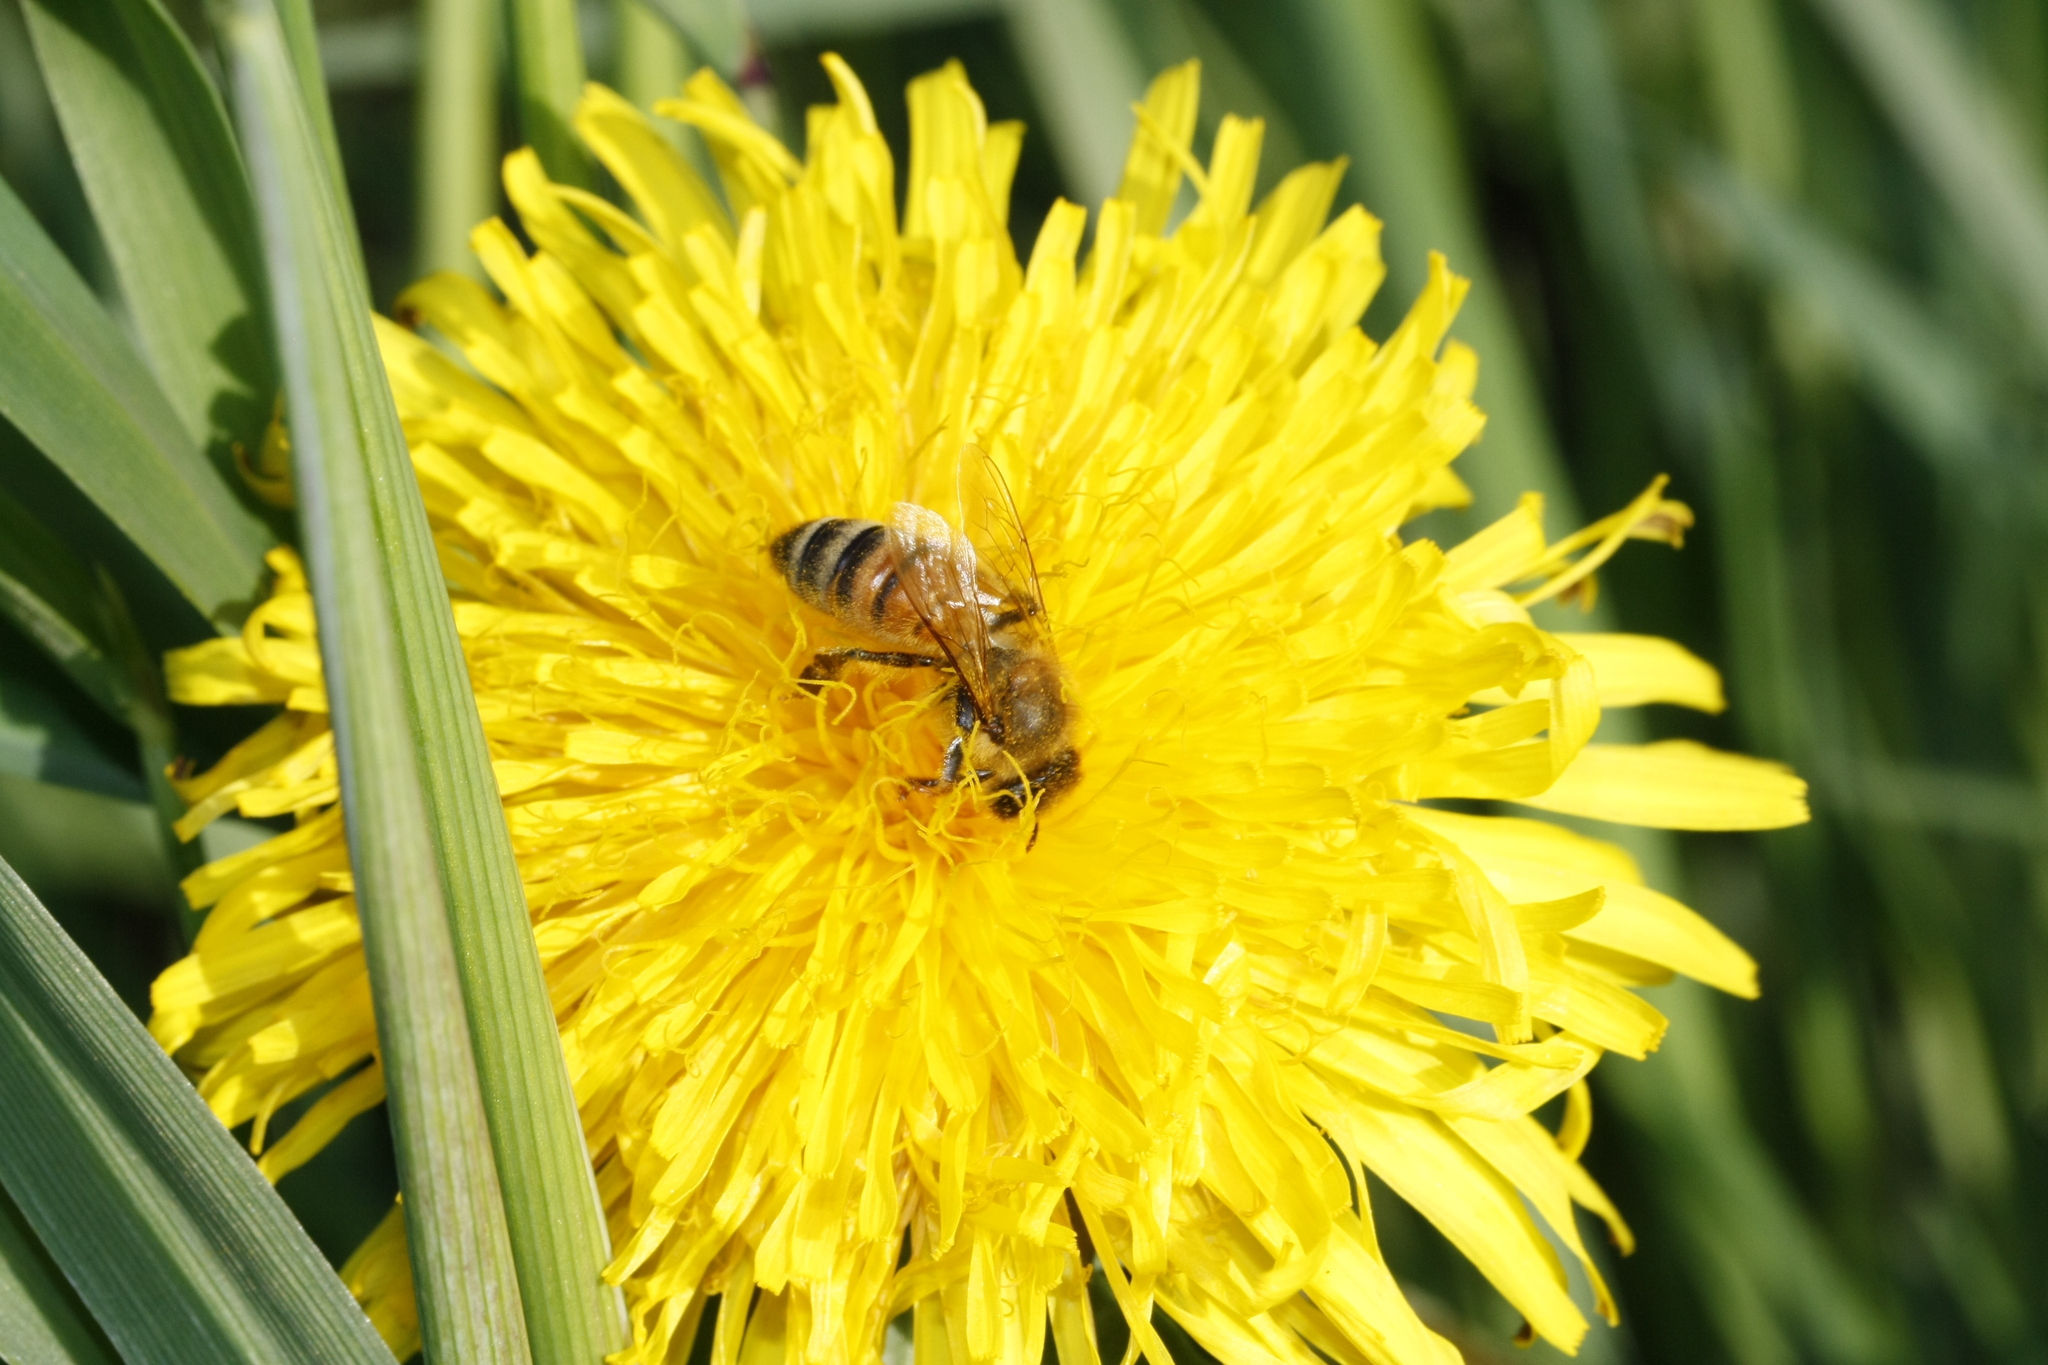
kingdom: Animalia
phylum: Arthropoda
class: Insecta
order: Hymenoptera
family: Apidae
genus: Apis
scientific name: Apis mellifera
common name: Honey bee
